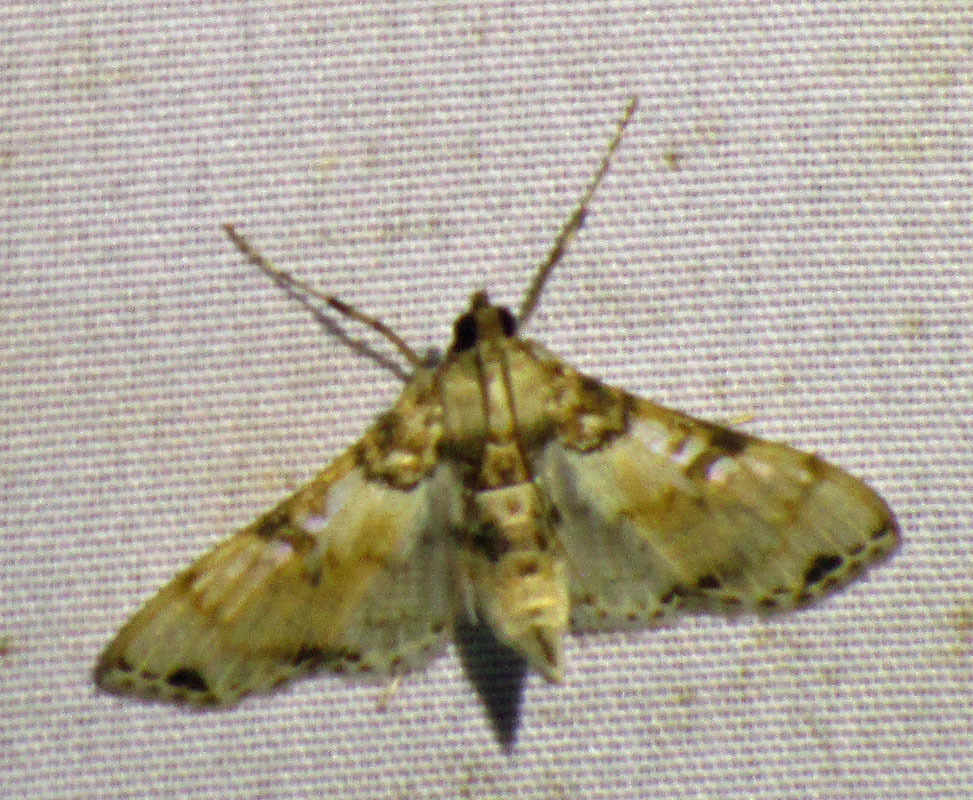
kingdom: Animalia
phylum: Arthropoda
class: Insecta
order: Lepidoptera
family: Crambidae
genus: Azochis
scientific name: Azochis rufidiscalis
